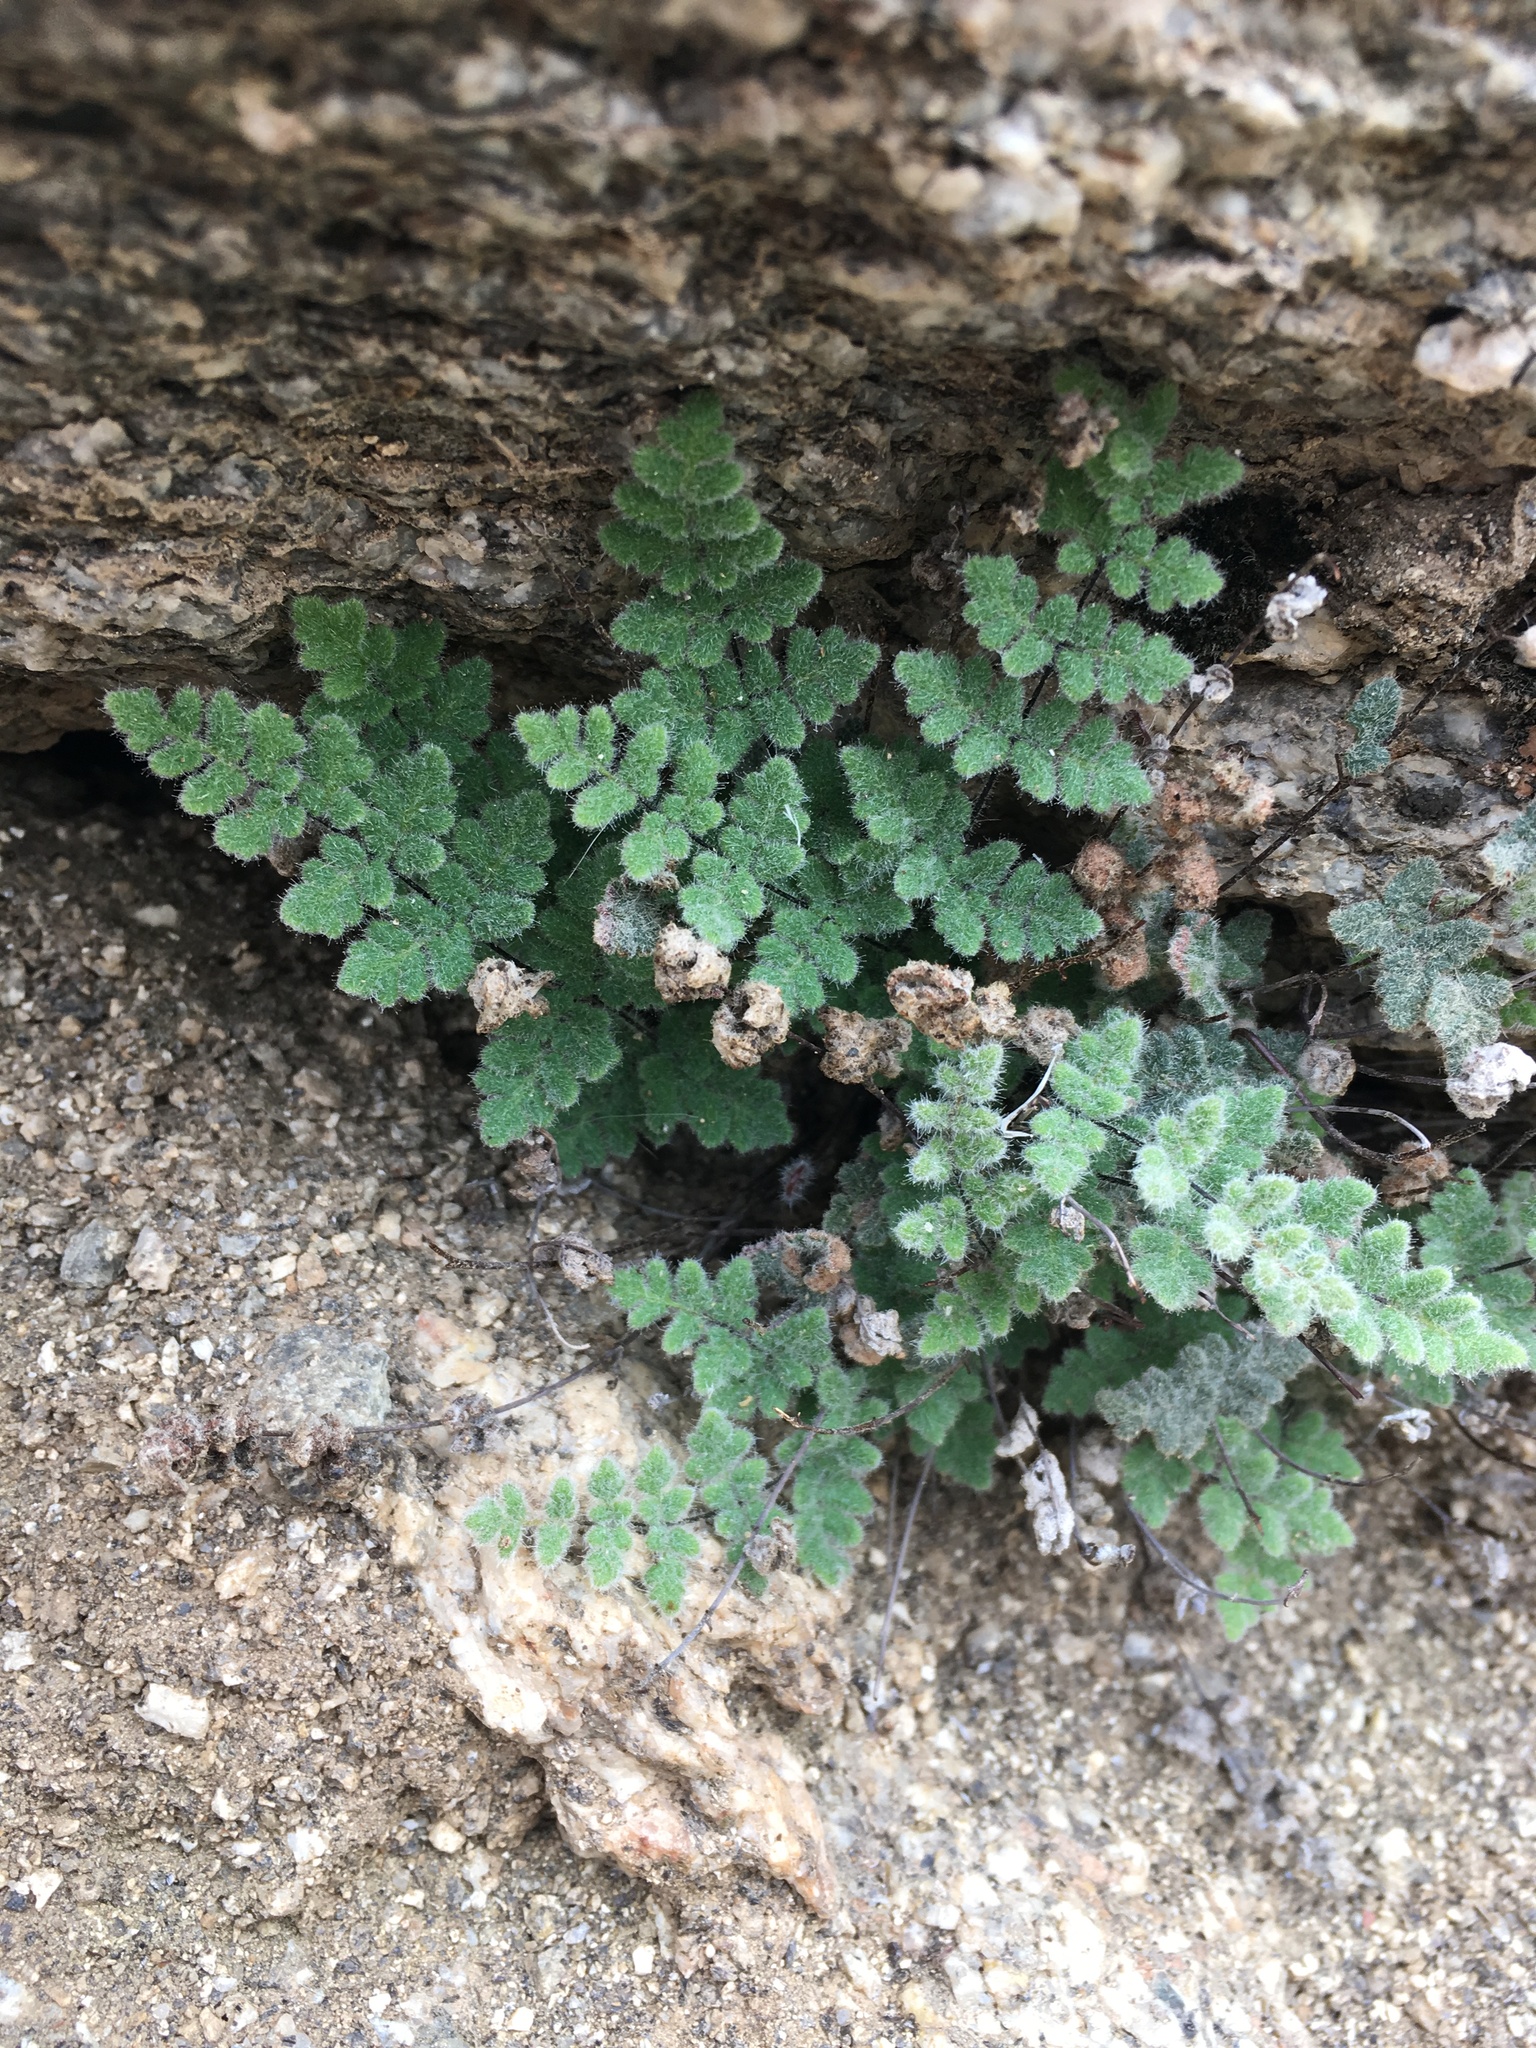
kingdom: Plantae
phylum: Tracheophyta
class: Polypodiopsida
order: Polypodiales
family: Pteridaceae
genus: Myriopteris
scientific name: Myriopteris parryi
